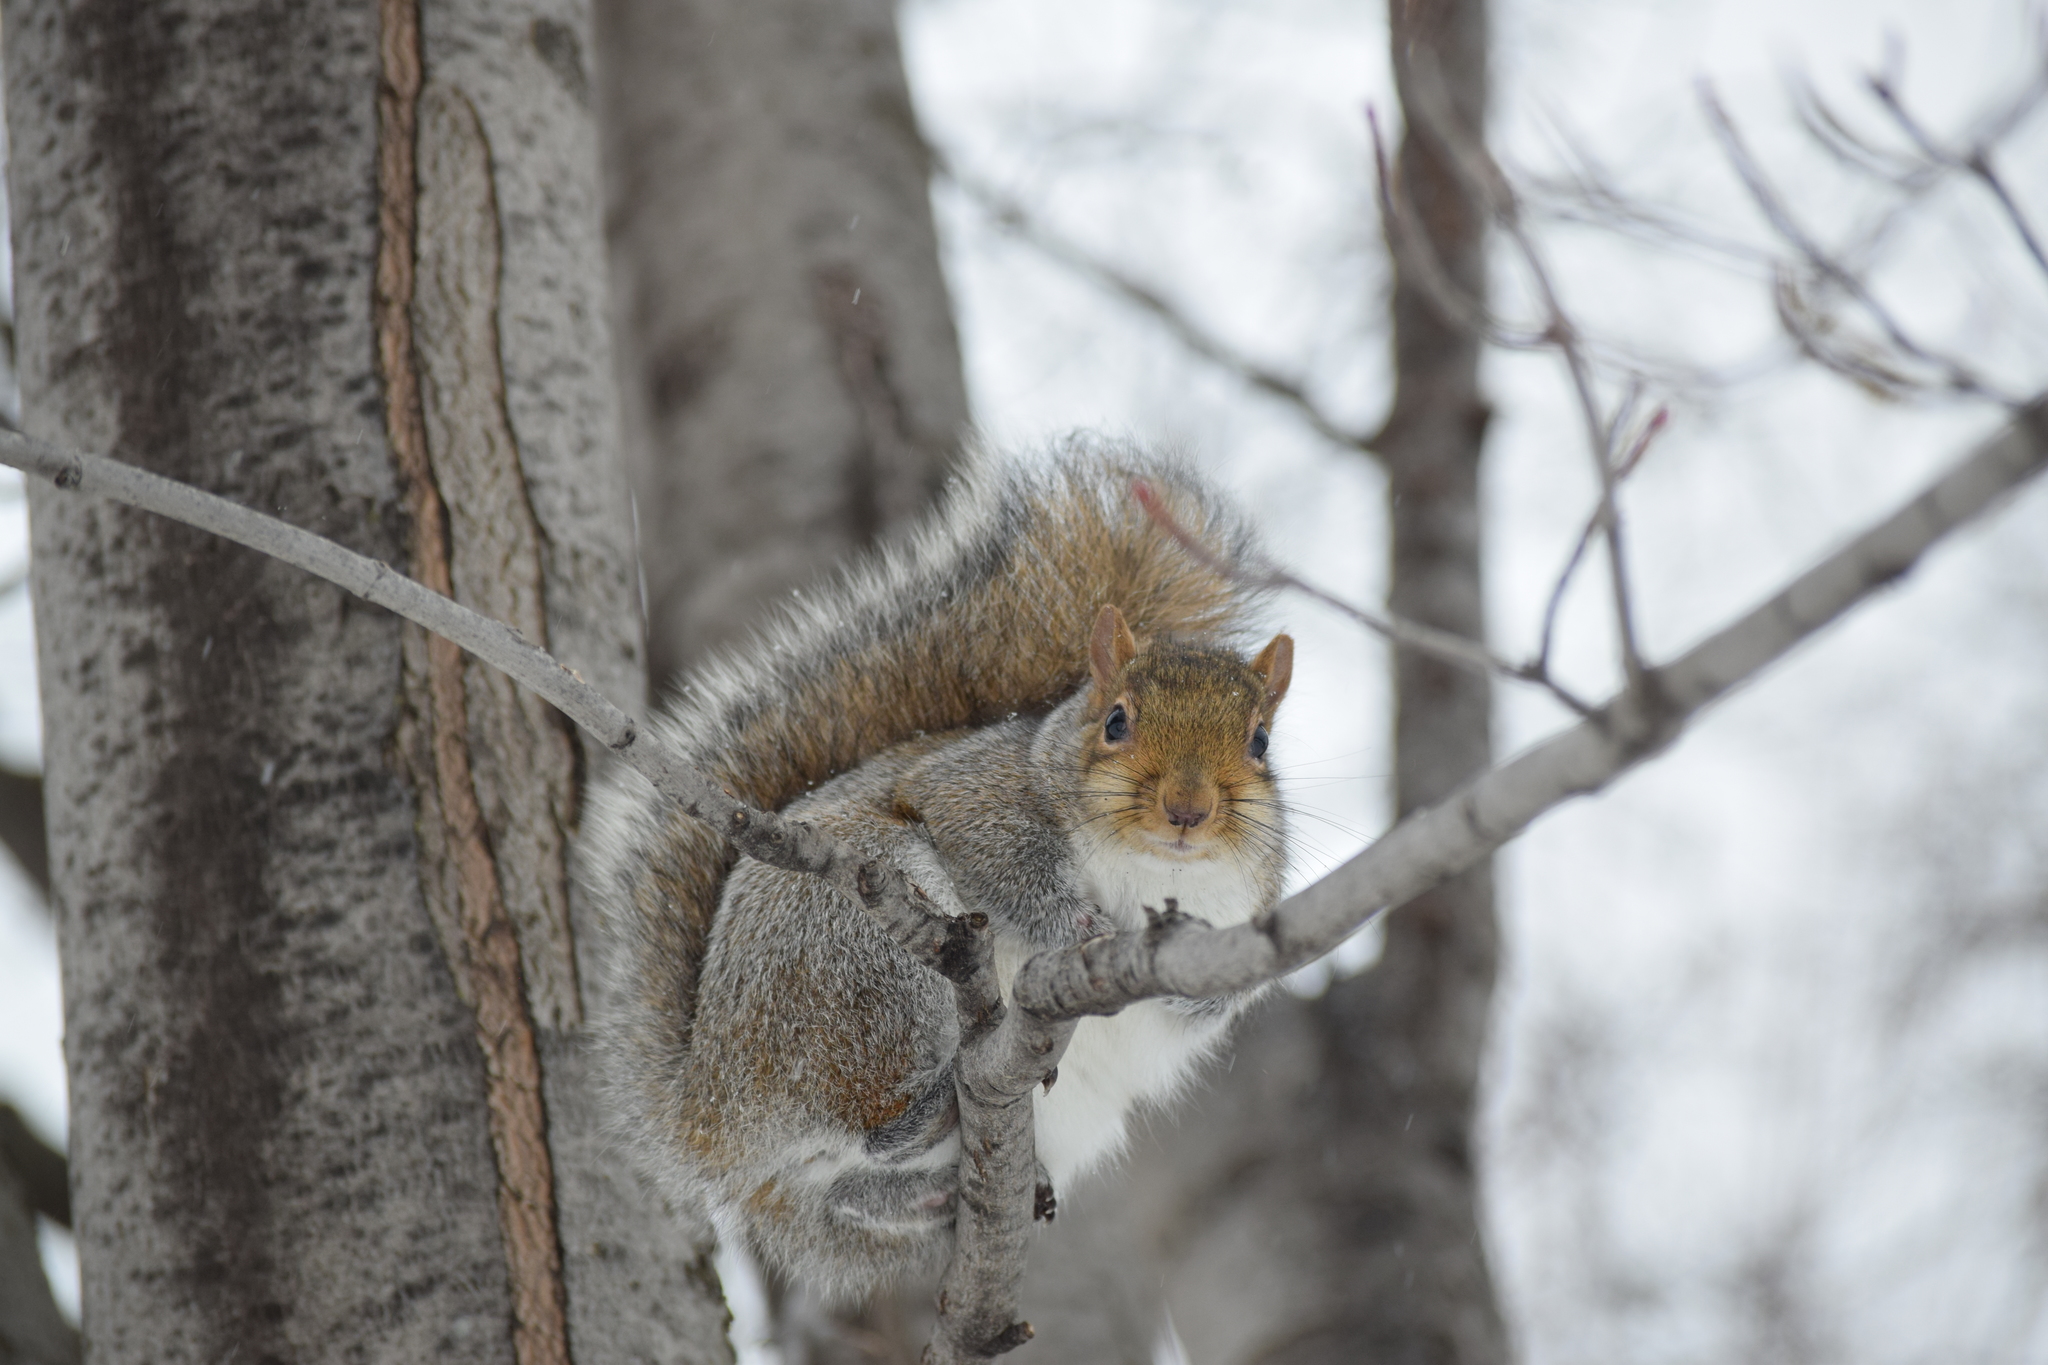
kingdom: Animalia
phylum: Chordata
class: Mammalia
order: Rodentia
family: Sciuridae
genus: Sciurus
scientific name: Sciurus carolinensis
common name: Eastern gray squirrel
